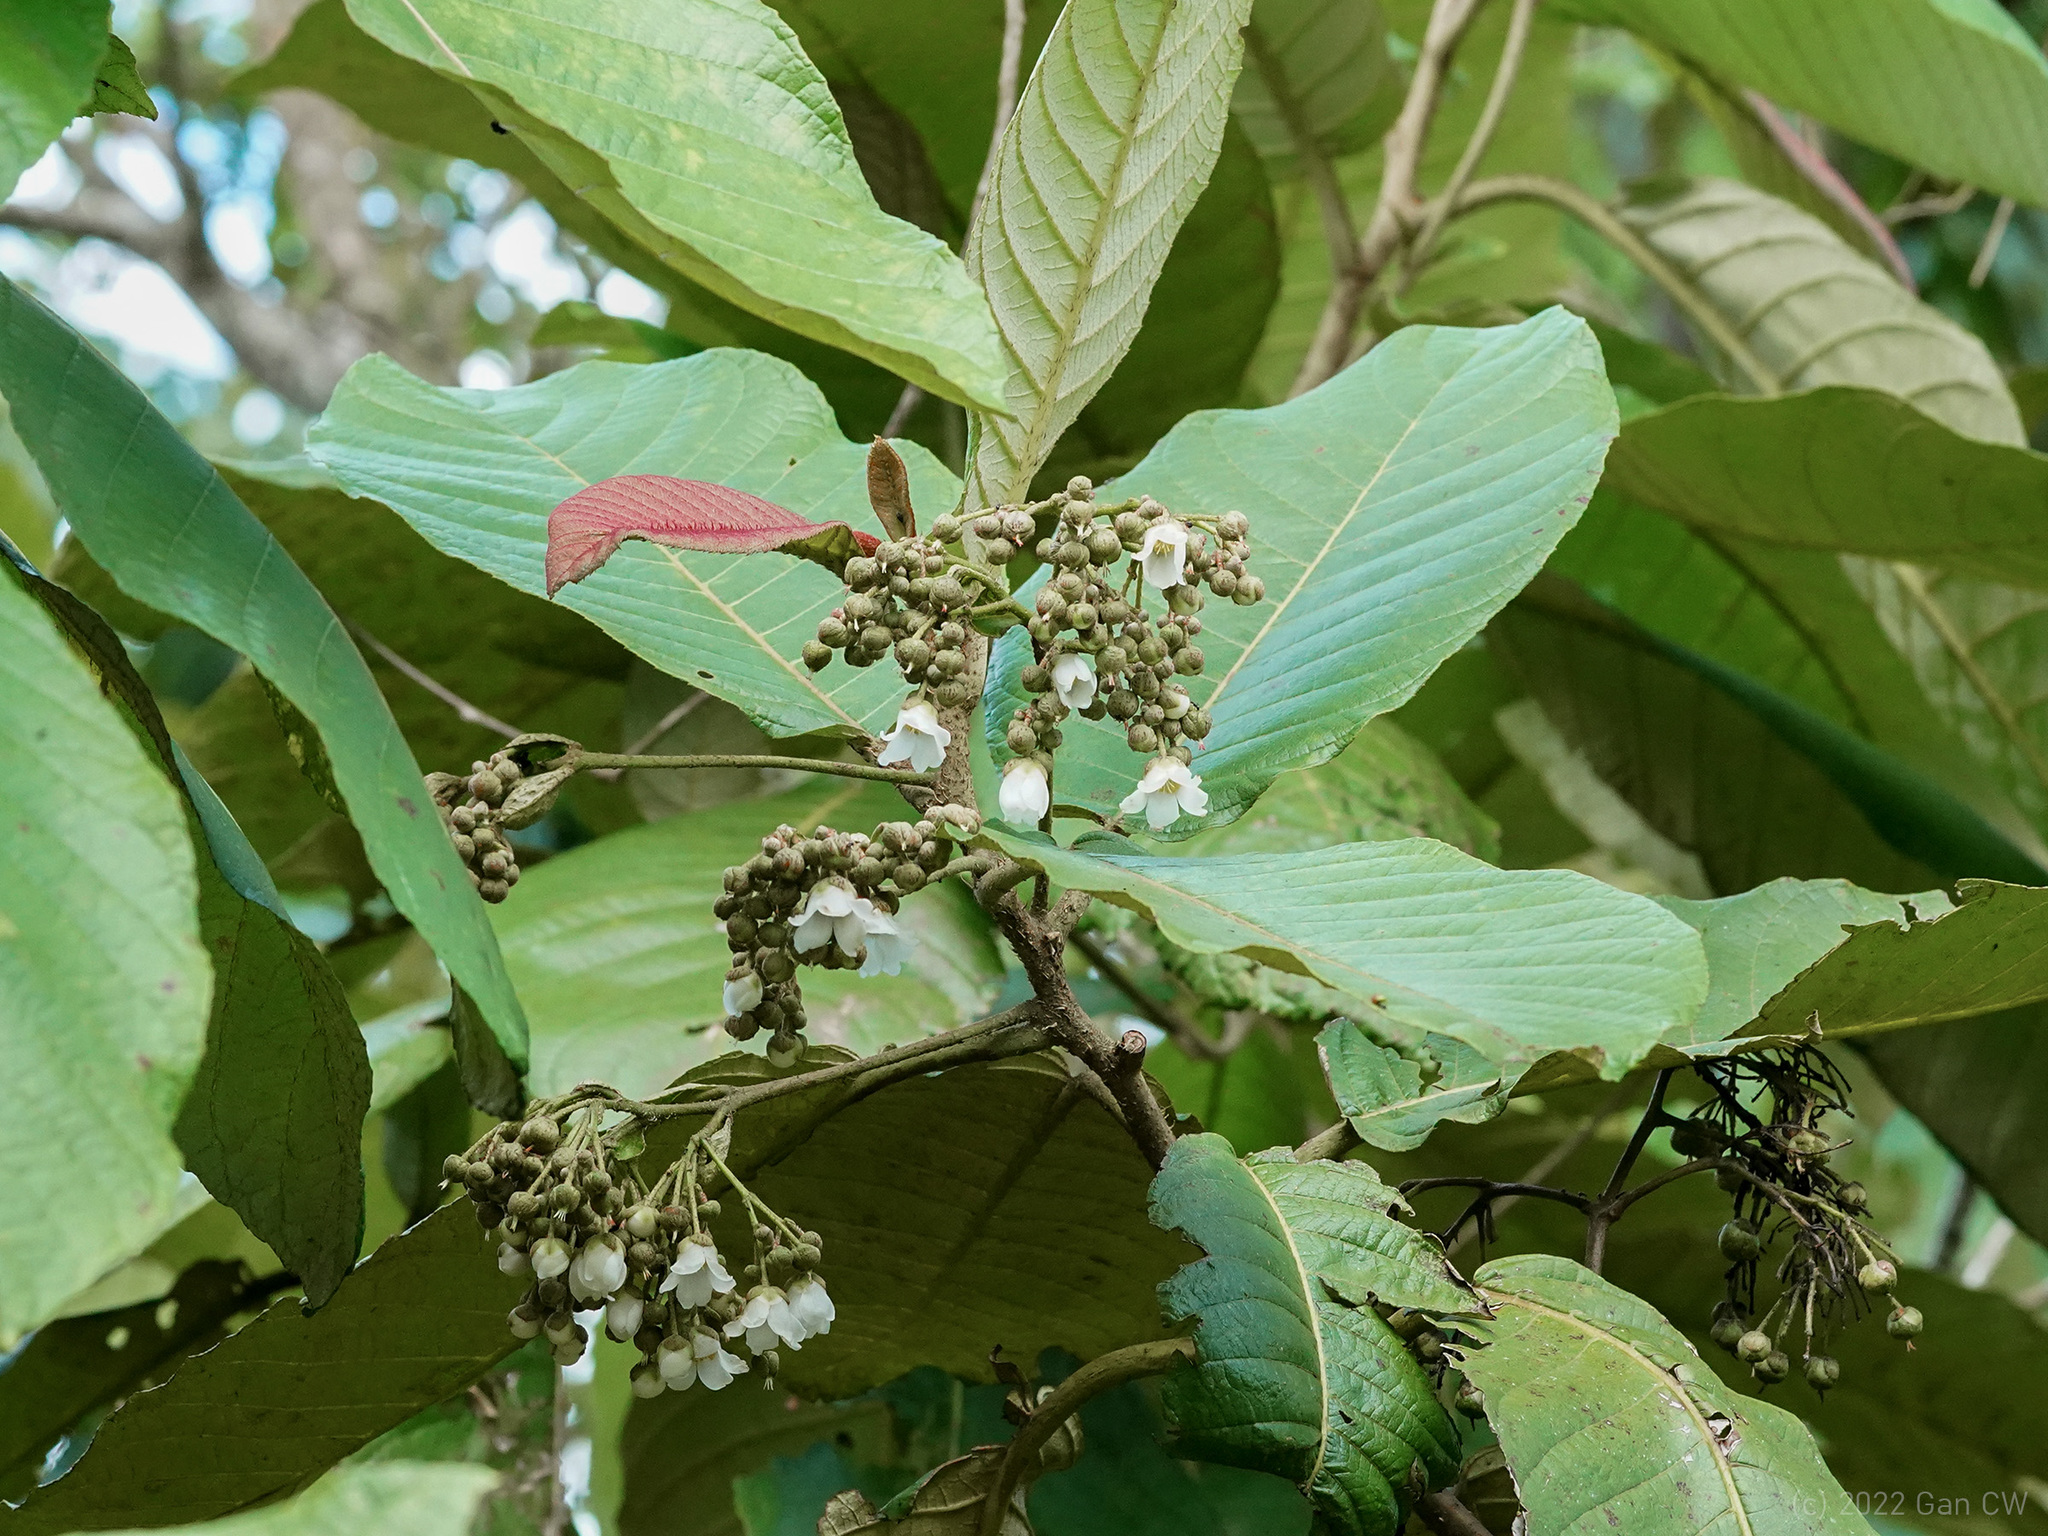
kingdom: Plantae
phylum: Tracheophyta
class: Magnoliopsida
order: Ericales
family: Actinidiaceae
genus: Saurauia
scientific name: Saurauia malayana
